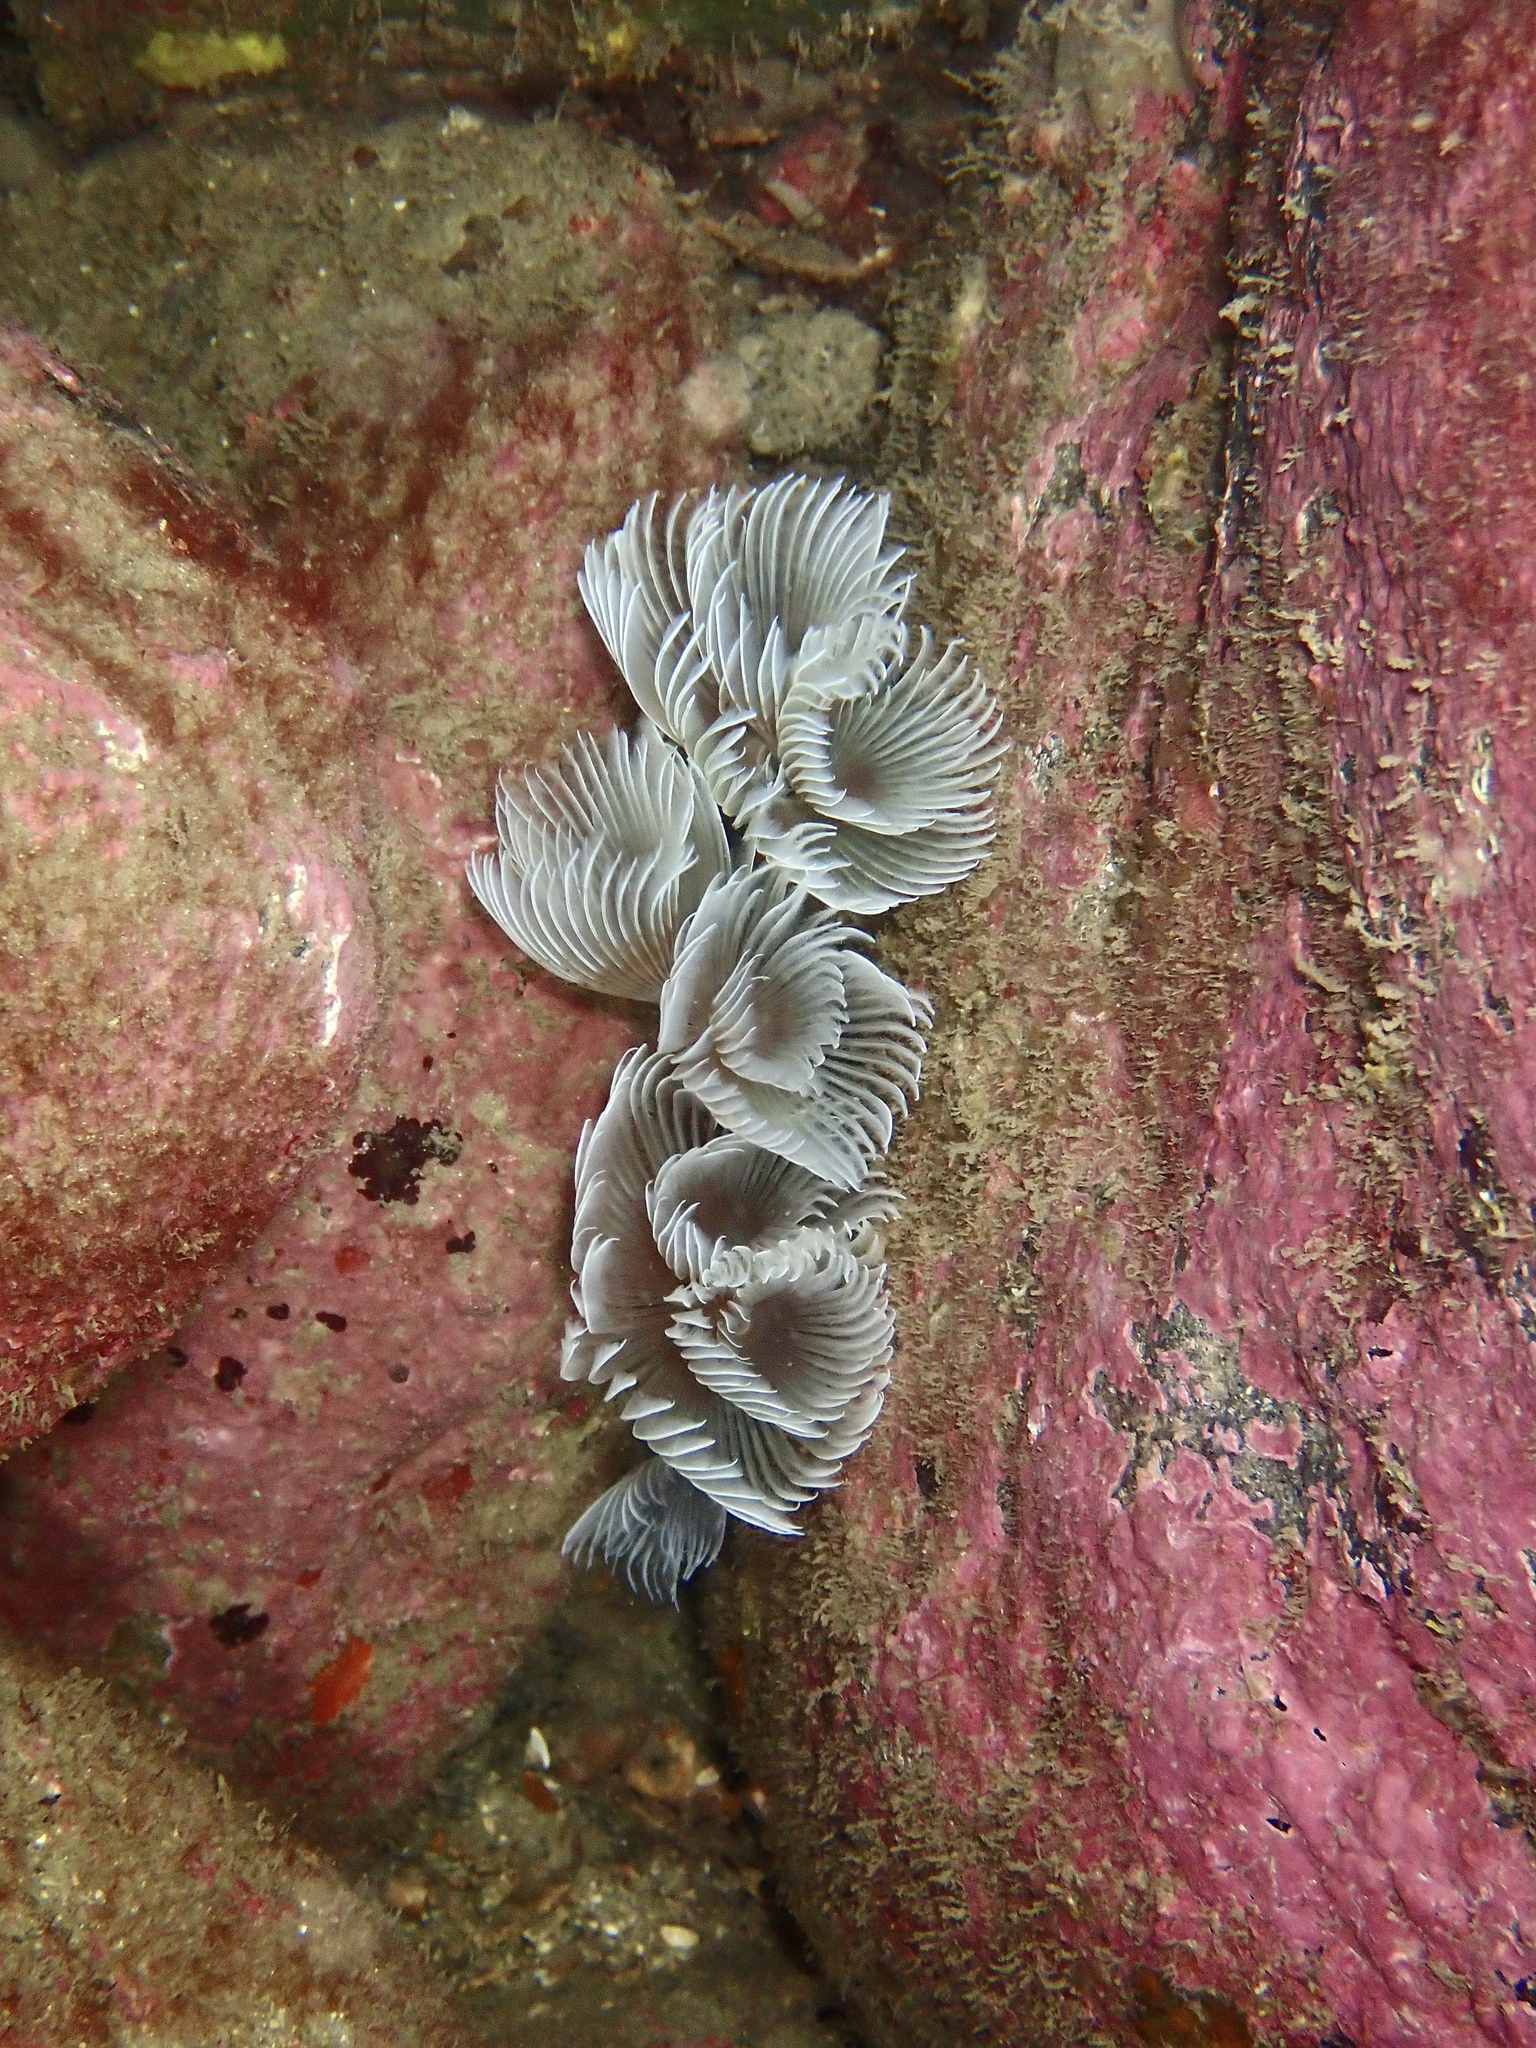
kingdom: Animalia
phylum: Annelida
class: Polychaeta
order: Sabellida
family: Sabellidae
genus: Bispira
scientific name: Bispira volutacornis
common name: Twin fan worm
